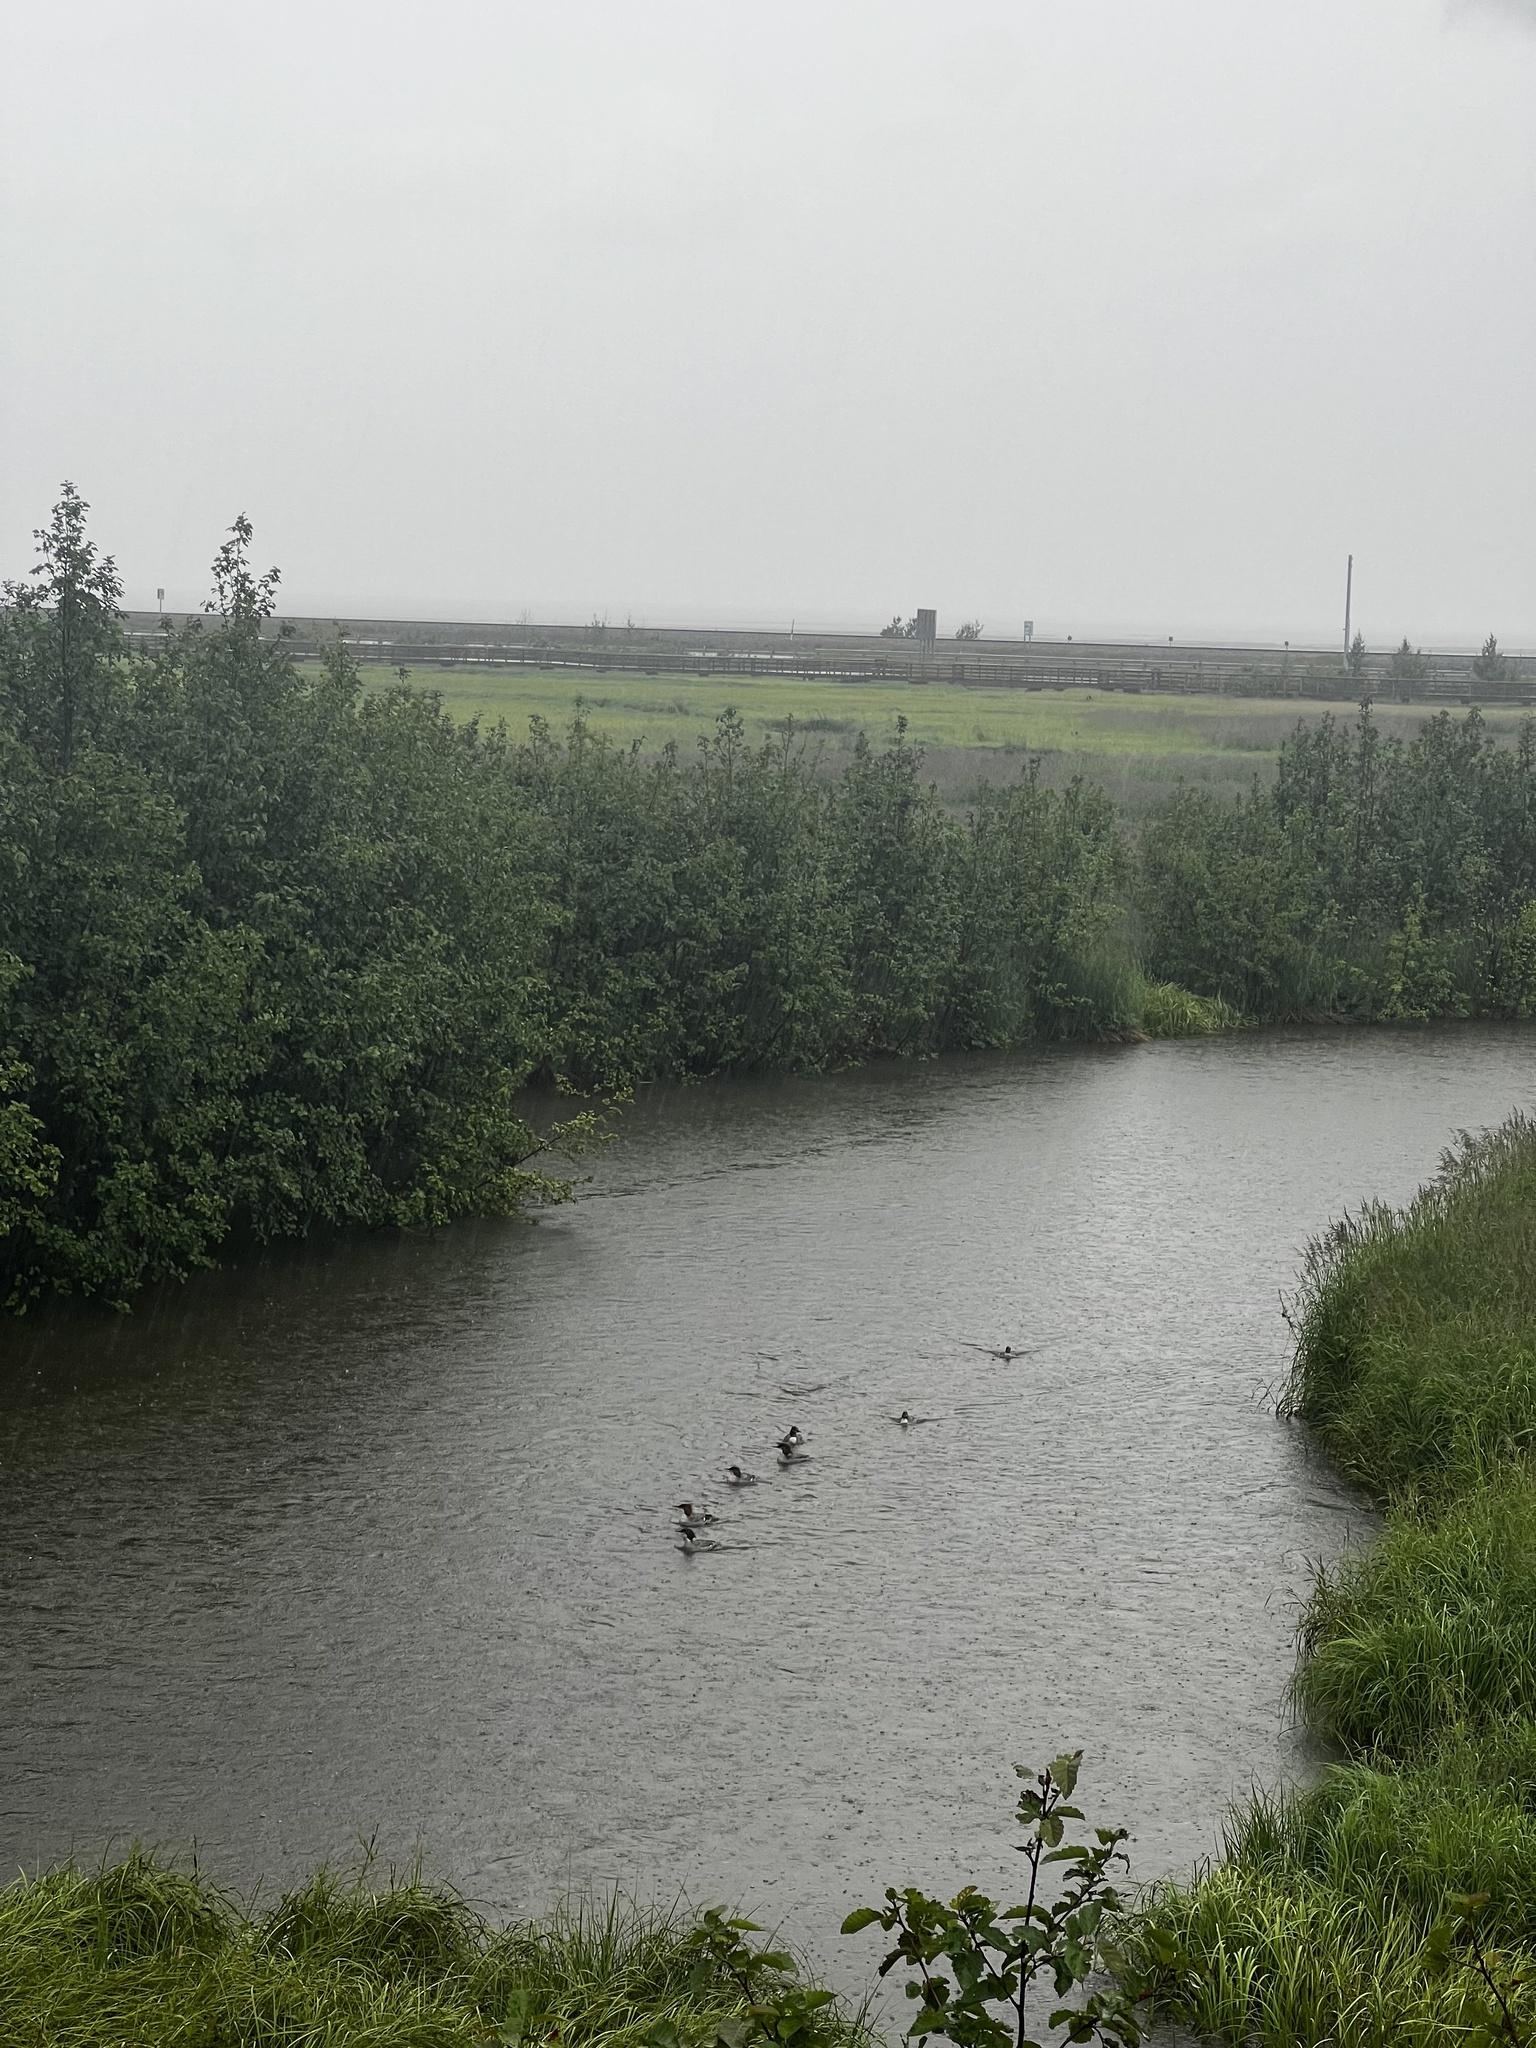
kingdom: Animalia
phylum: Chordata
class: Aves
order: Anseriformes
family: Anatidae
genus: Mergus
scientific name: Mergus merganser
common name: Common merganser
